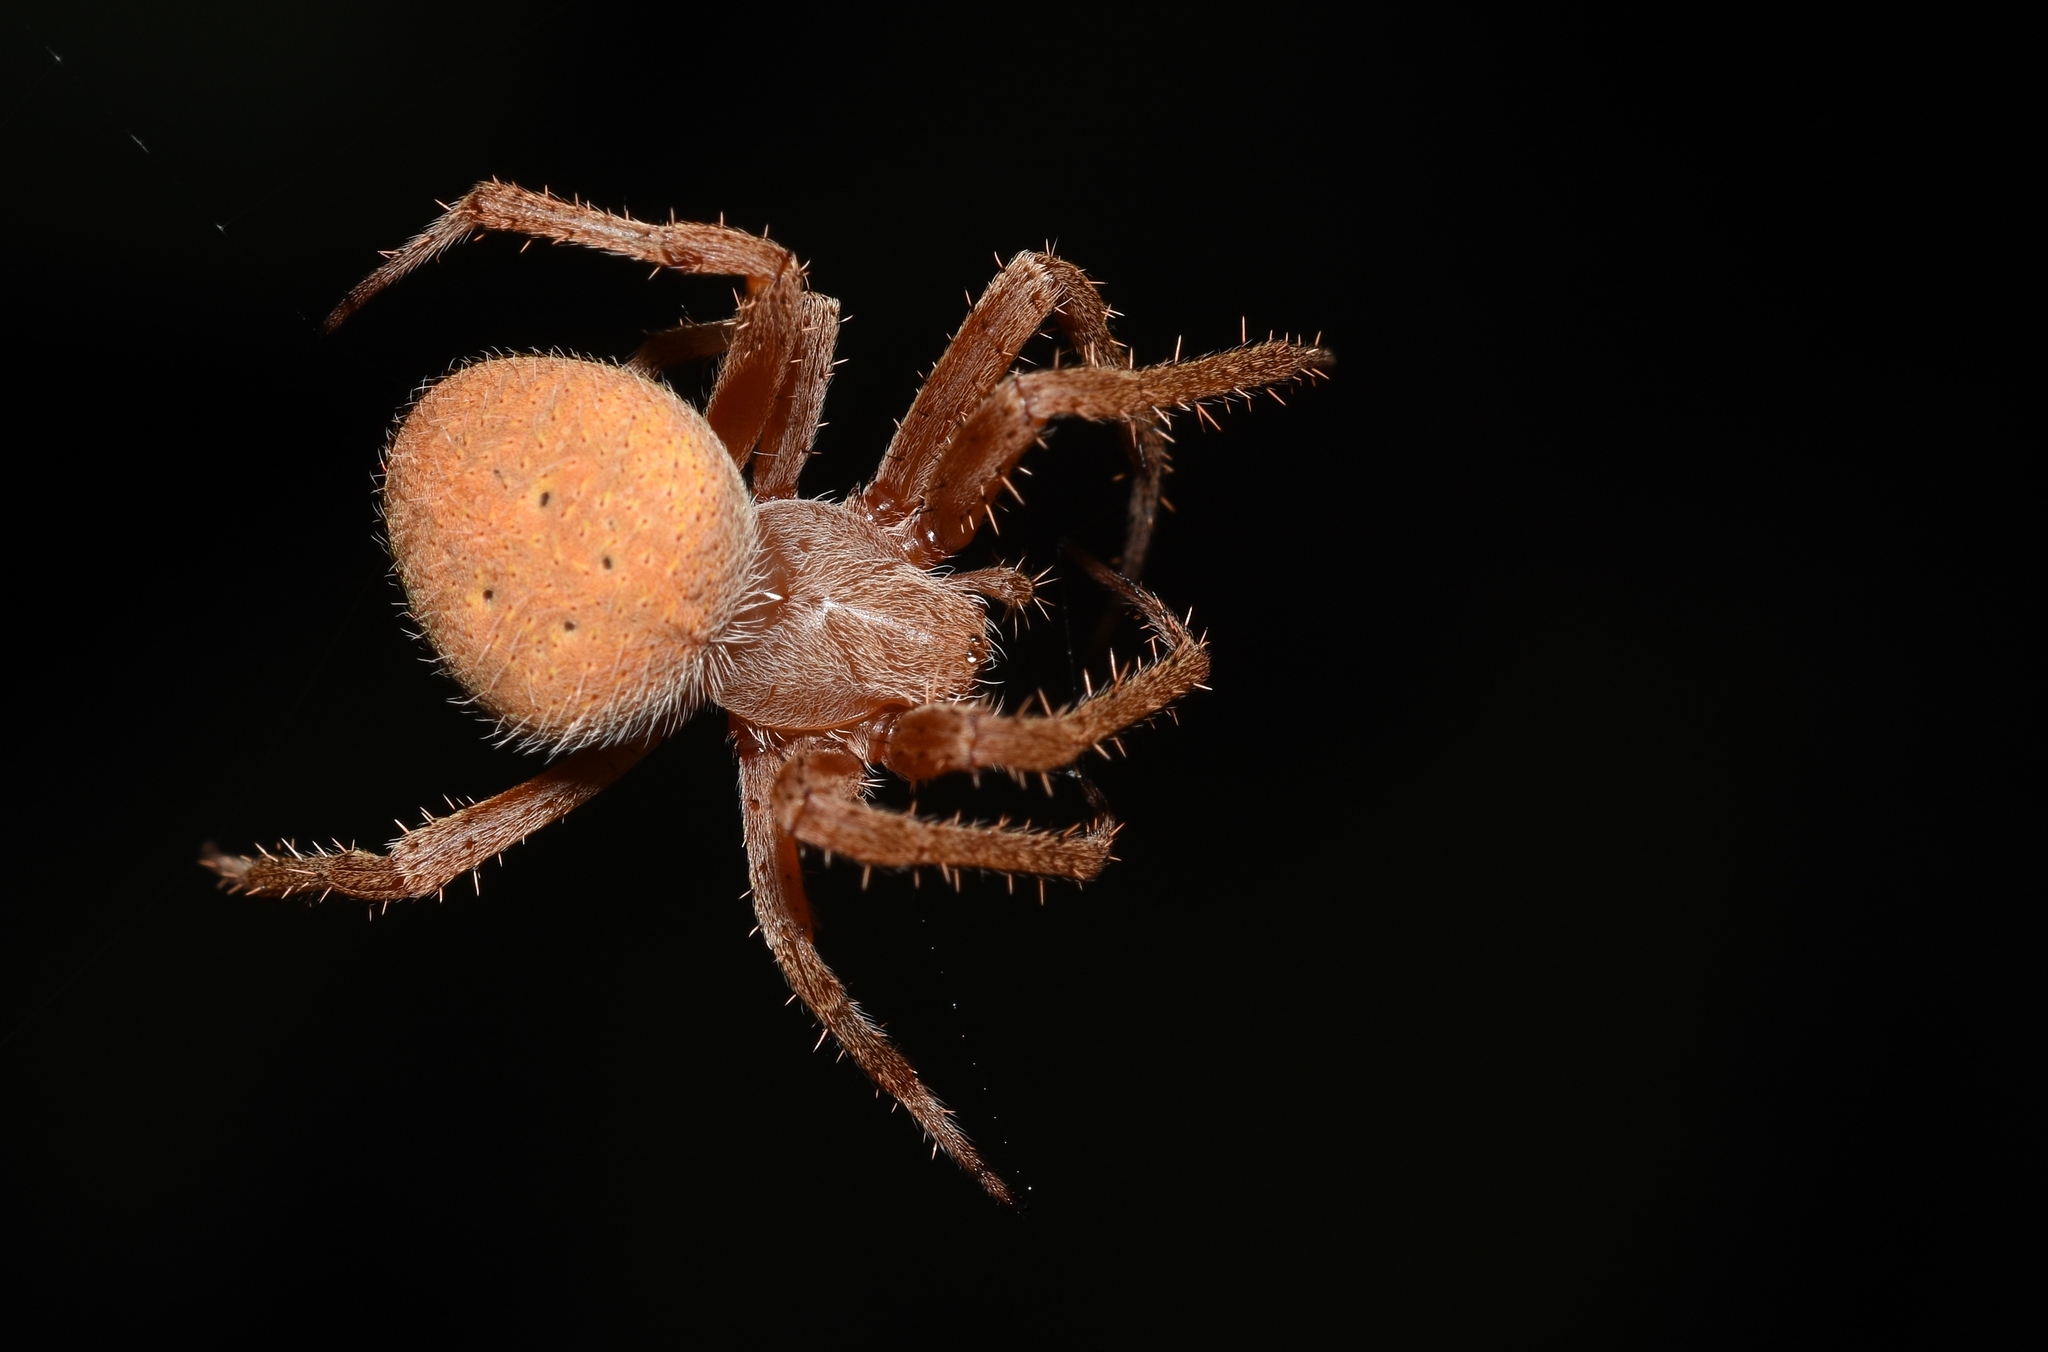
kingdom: Animalia
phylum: Arthropoda
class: Arachnida
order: Araneae
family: Araneidae
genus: Neoscona
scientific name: Neoscona crucifera
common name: Spotted orbweaver
